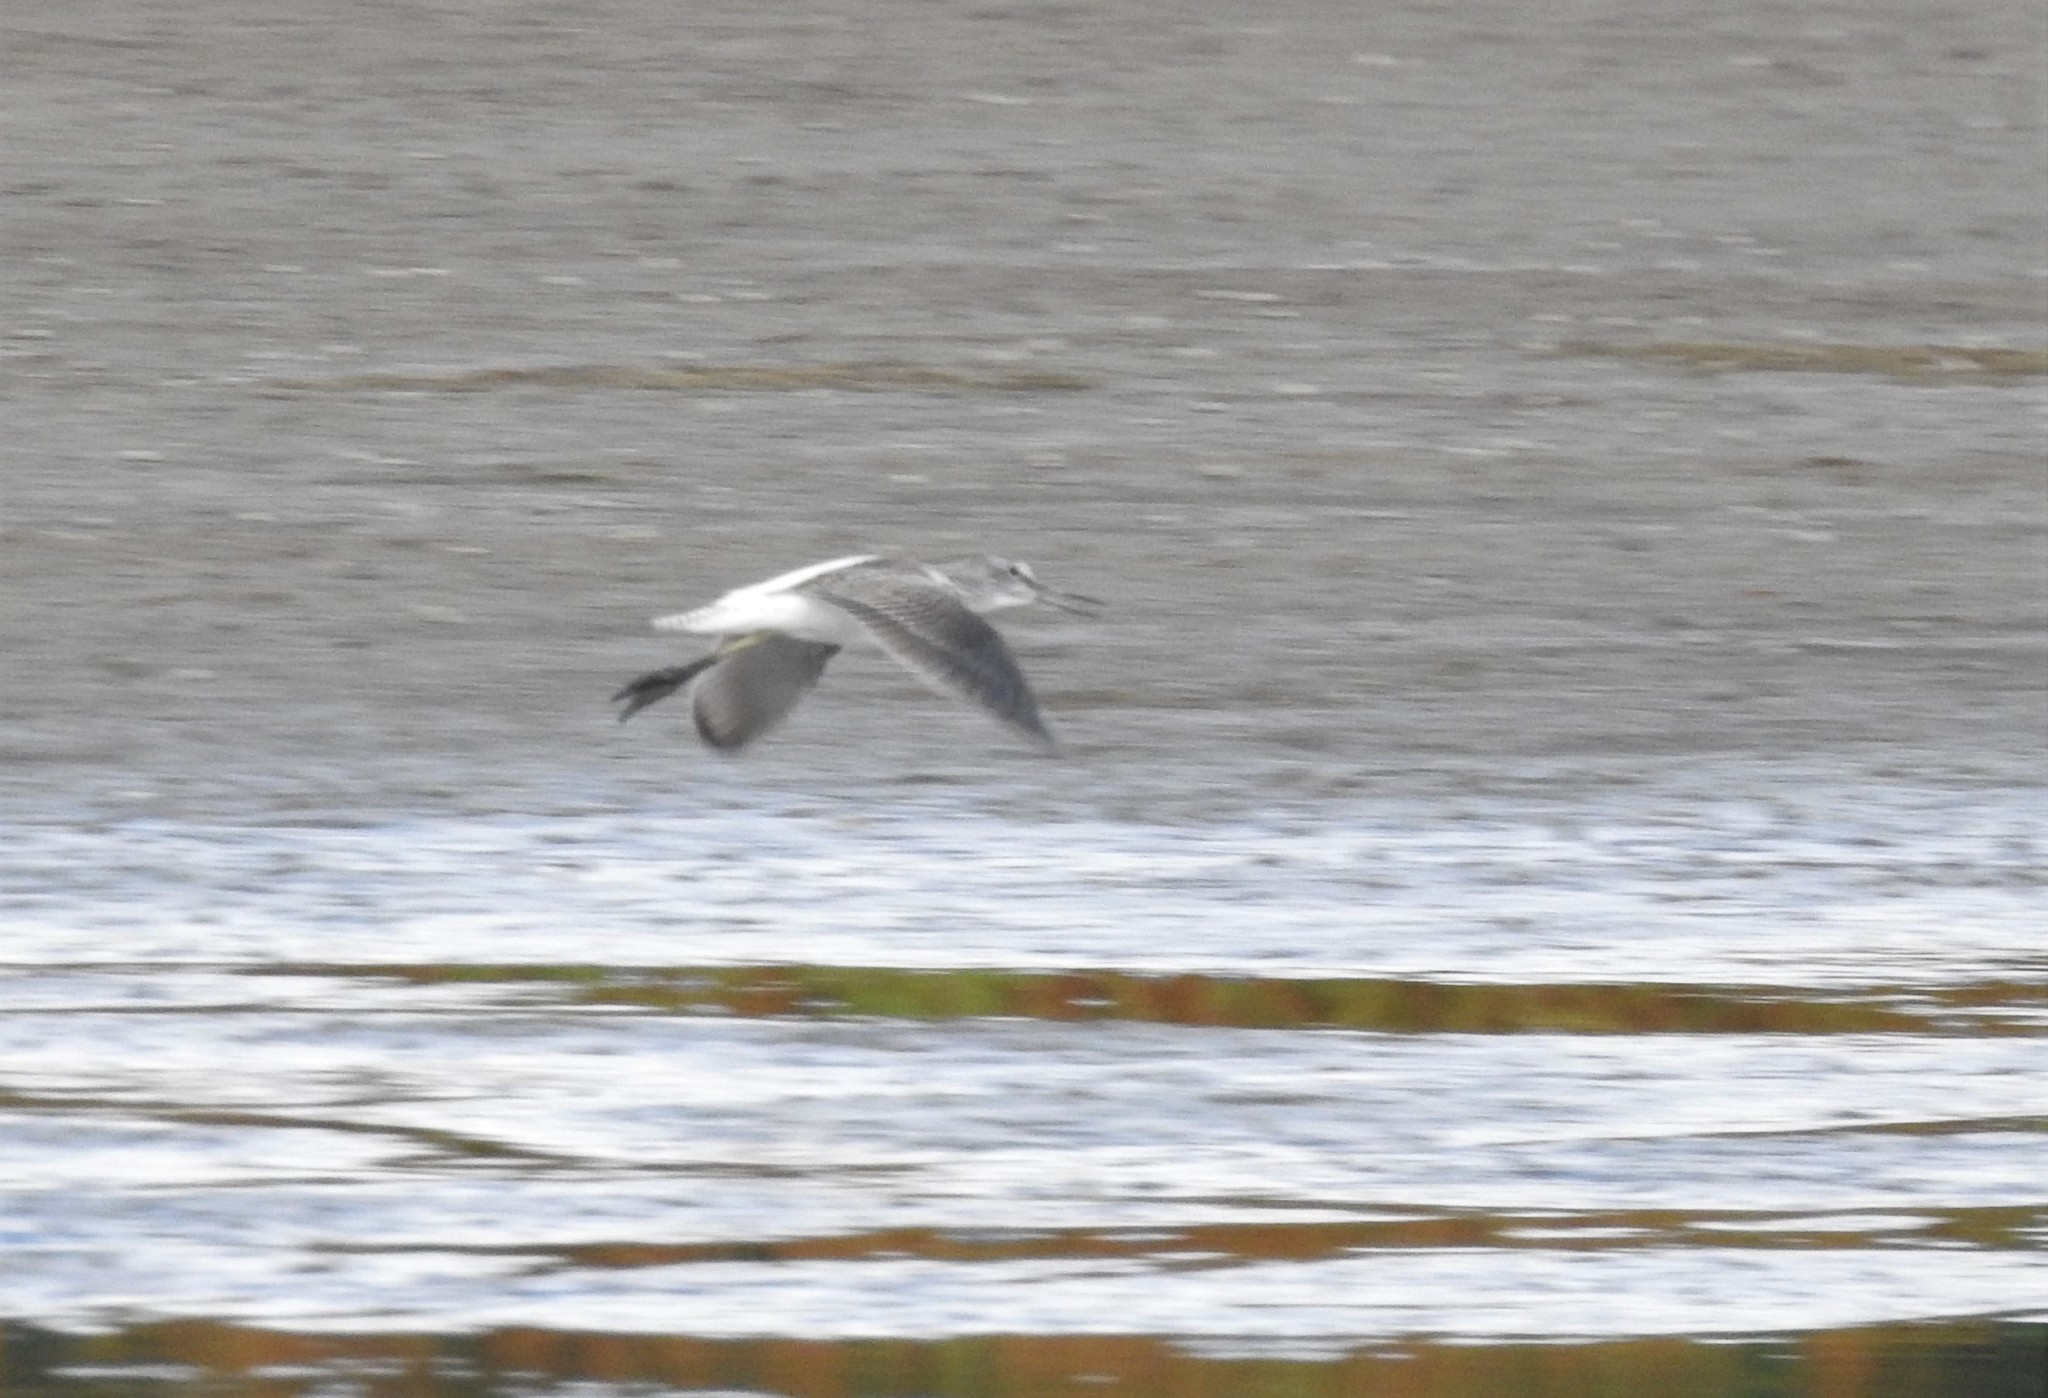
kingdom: Animalia
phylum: Chordata
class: Aves
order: Charadriiformes
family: Scolopacidae
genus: Tringa
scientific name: Tringa nebularia
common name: Common greenshank
